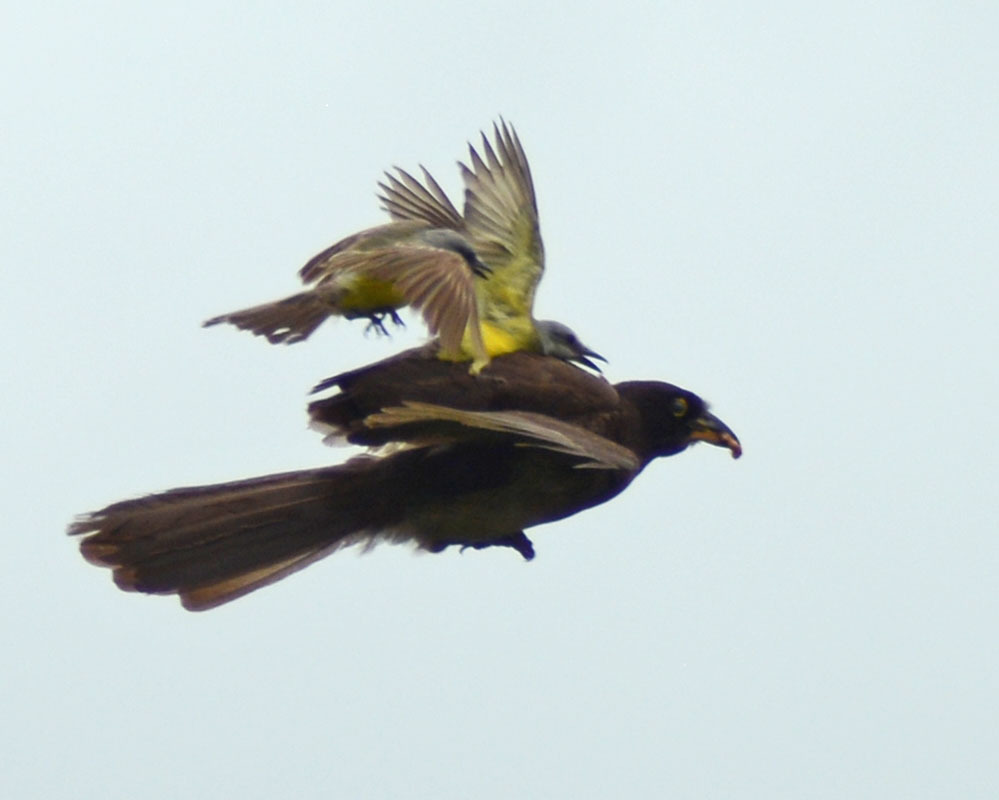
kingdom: Animalia
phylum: Chordata
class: Aves
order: Passeriformes
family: Corvidae
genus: Psilorhinus
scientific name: Psilorhinus morio
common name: Brown jay
